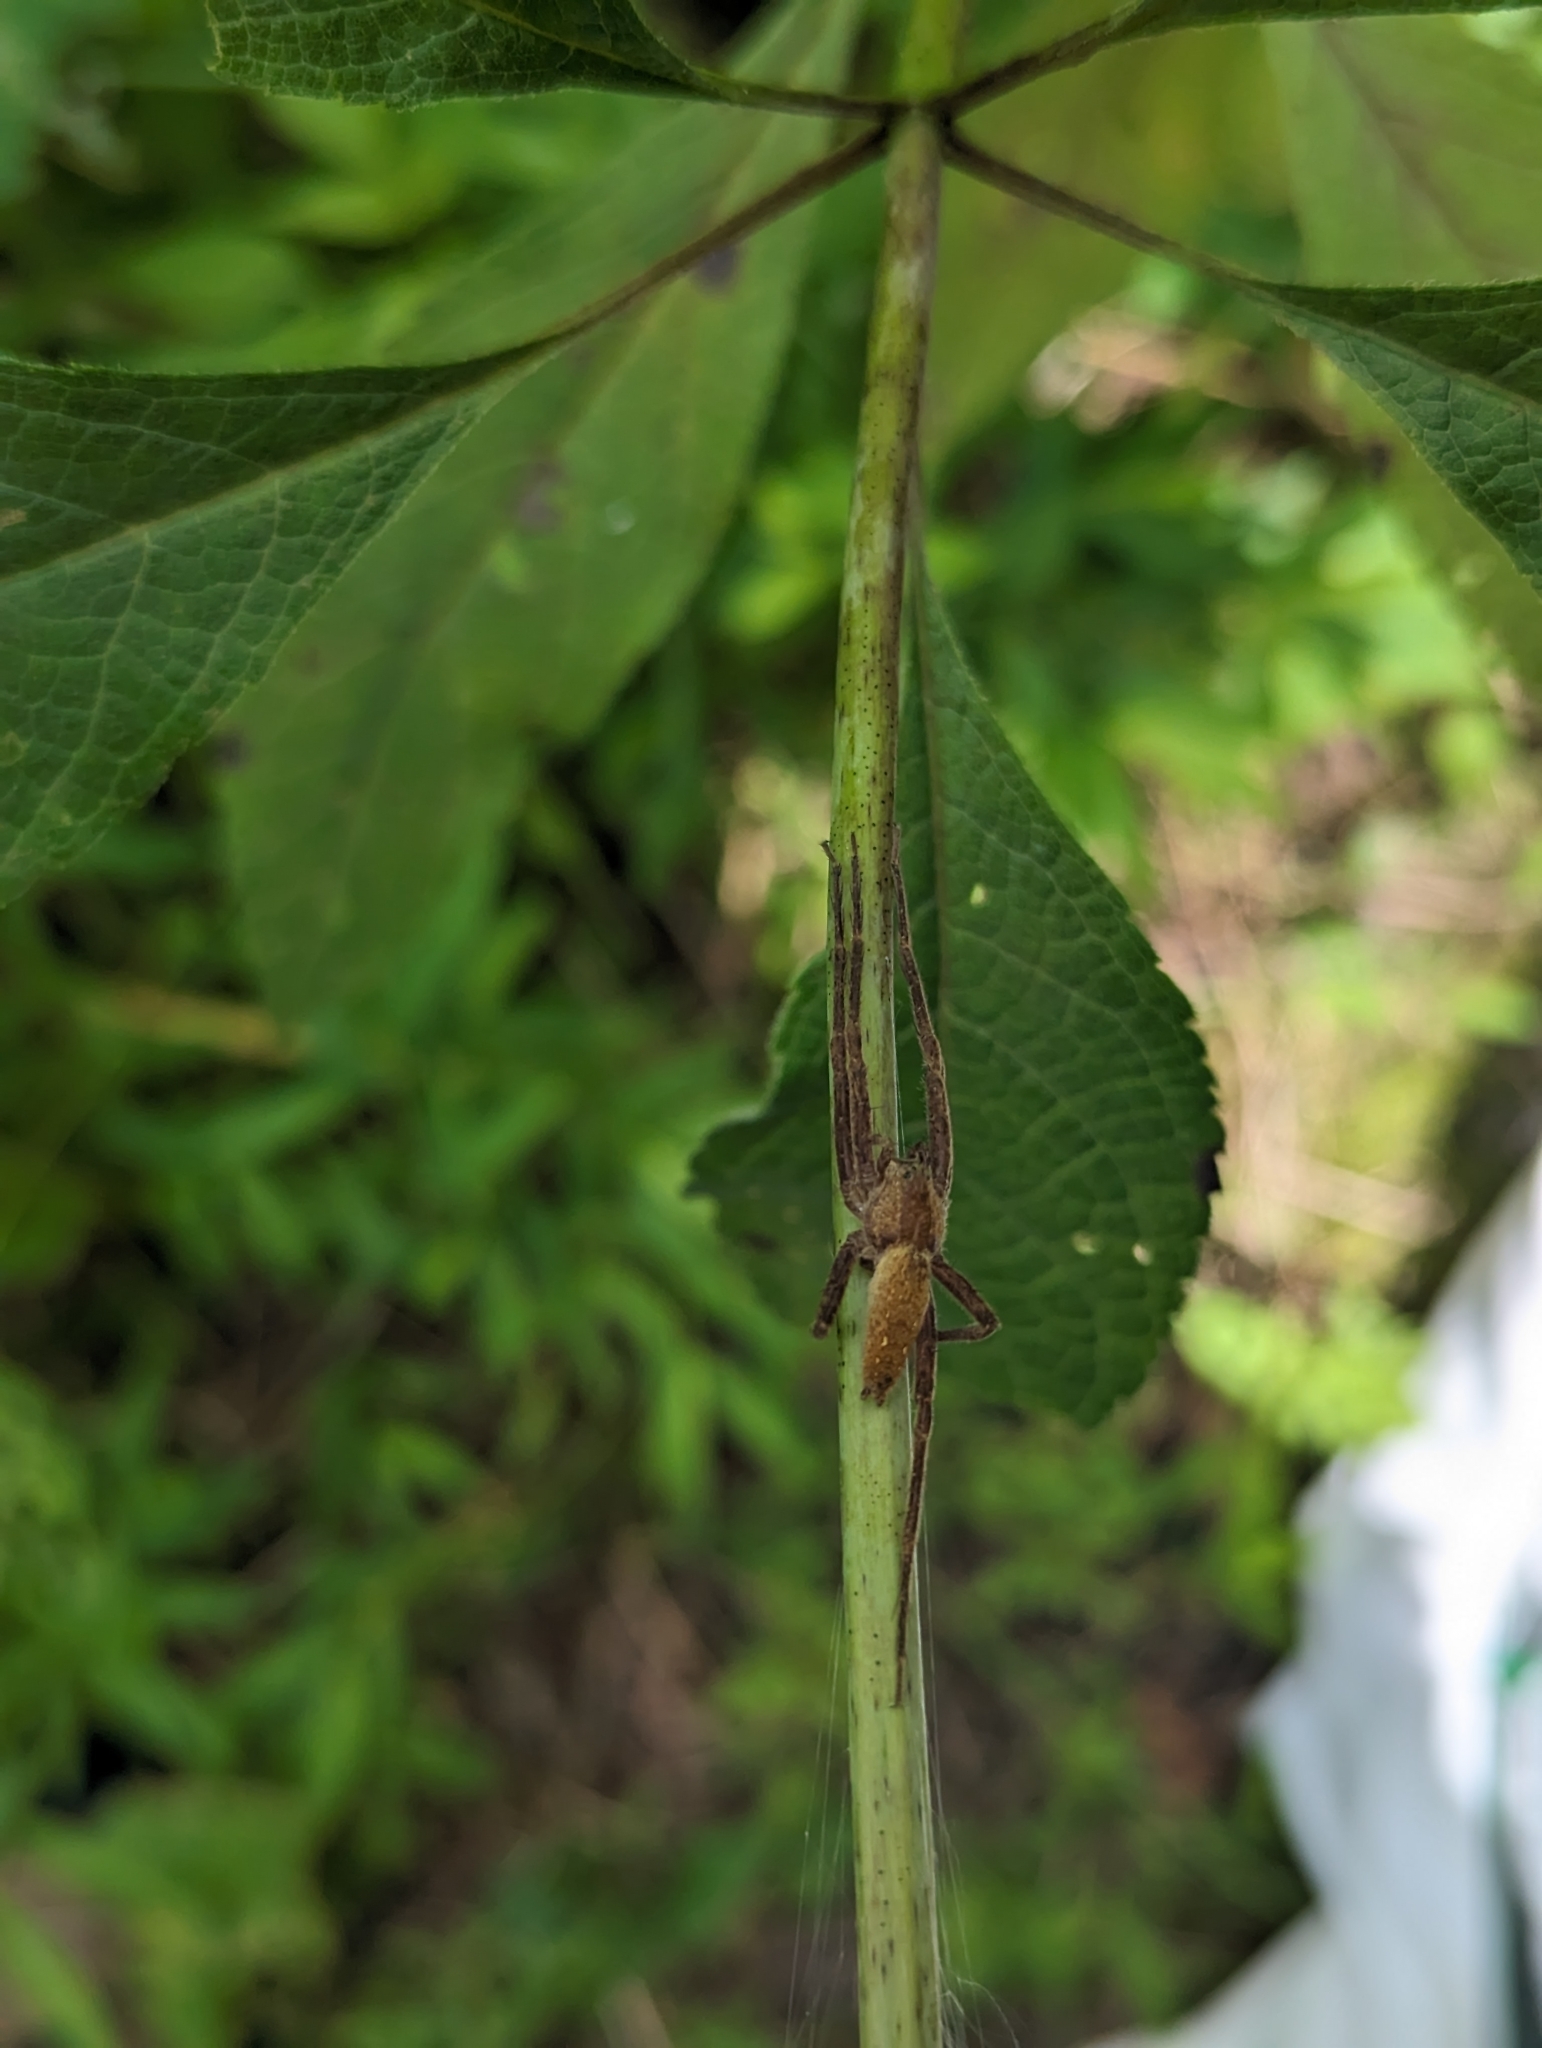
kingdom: Animalia
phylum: Arthropoda
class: Arachnida
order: Araneae
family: Pisauridae
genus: Pisaurina
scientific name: Pisaurina mira
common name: American nursery web spider
